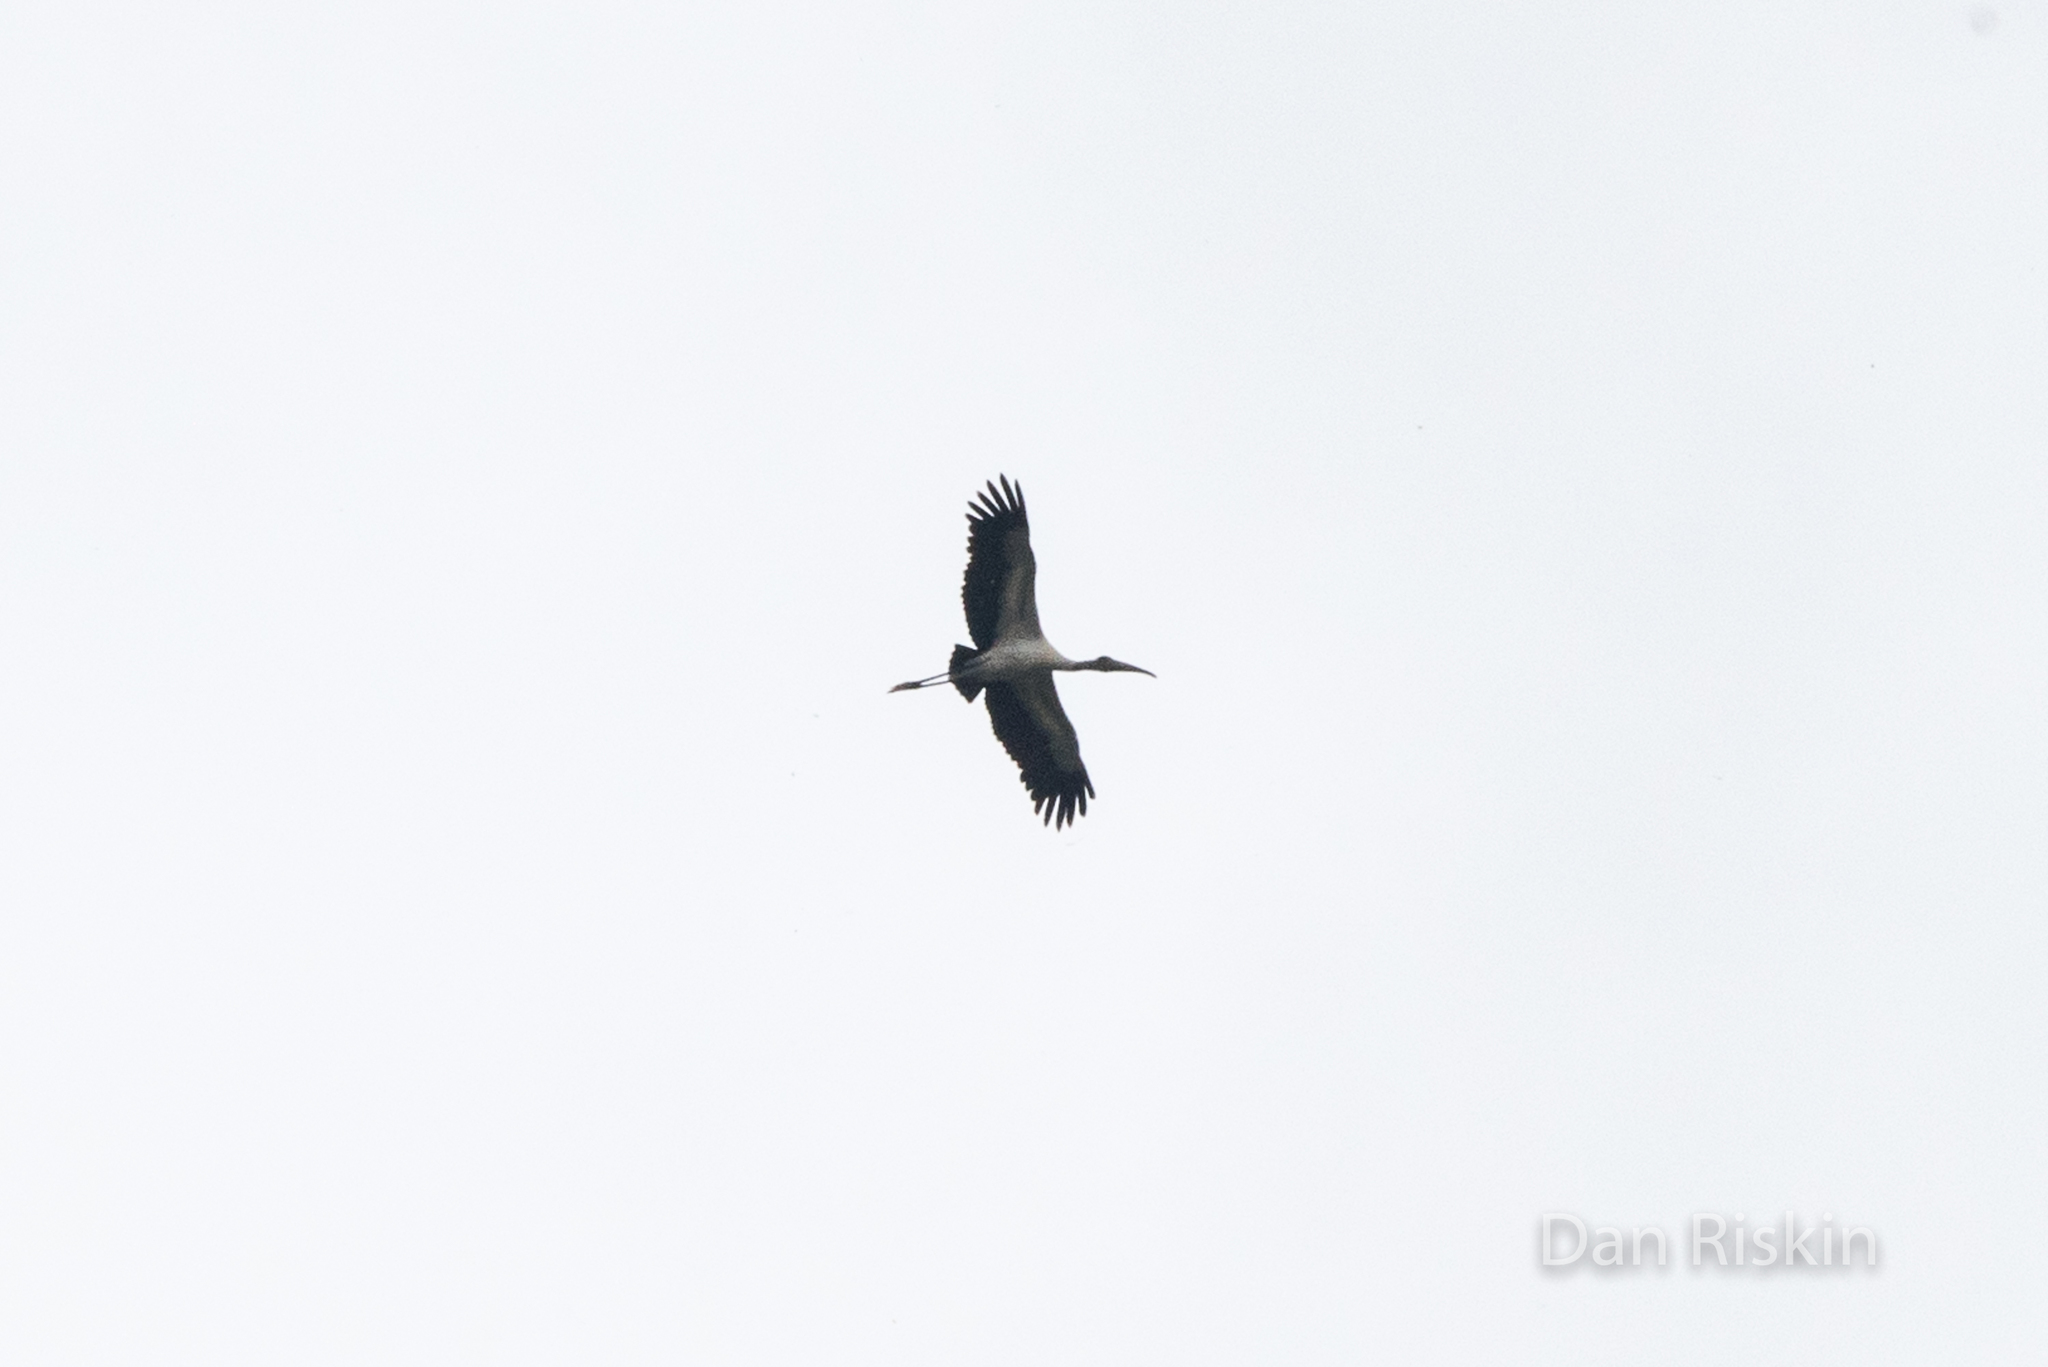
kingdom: Animalia
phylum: Chordata
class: Aves
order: Ciconiiformes
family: Ciconiidae
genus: Mycteria
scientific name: Mycteria americana
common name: Wood stork
